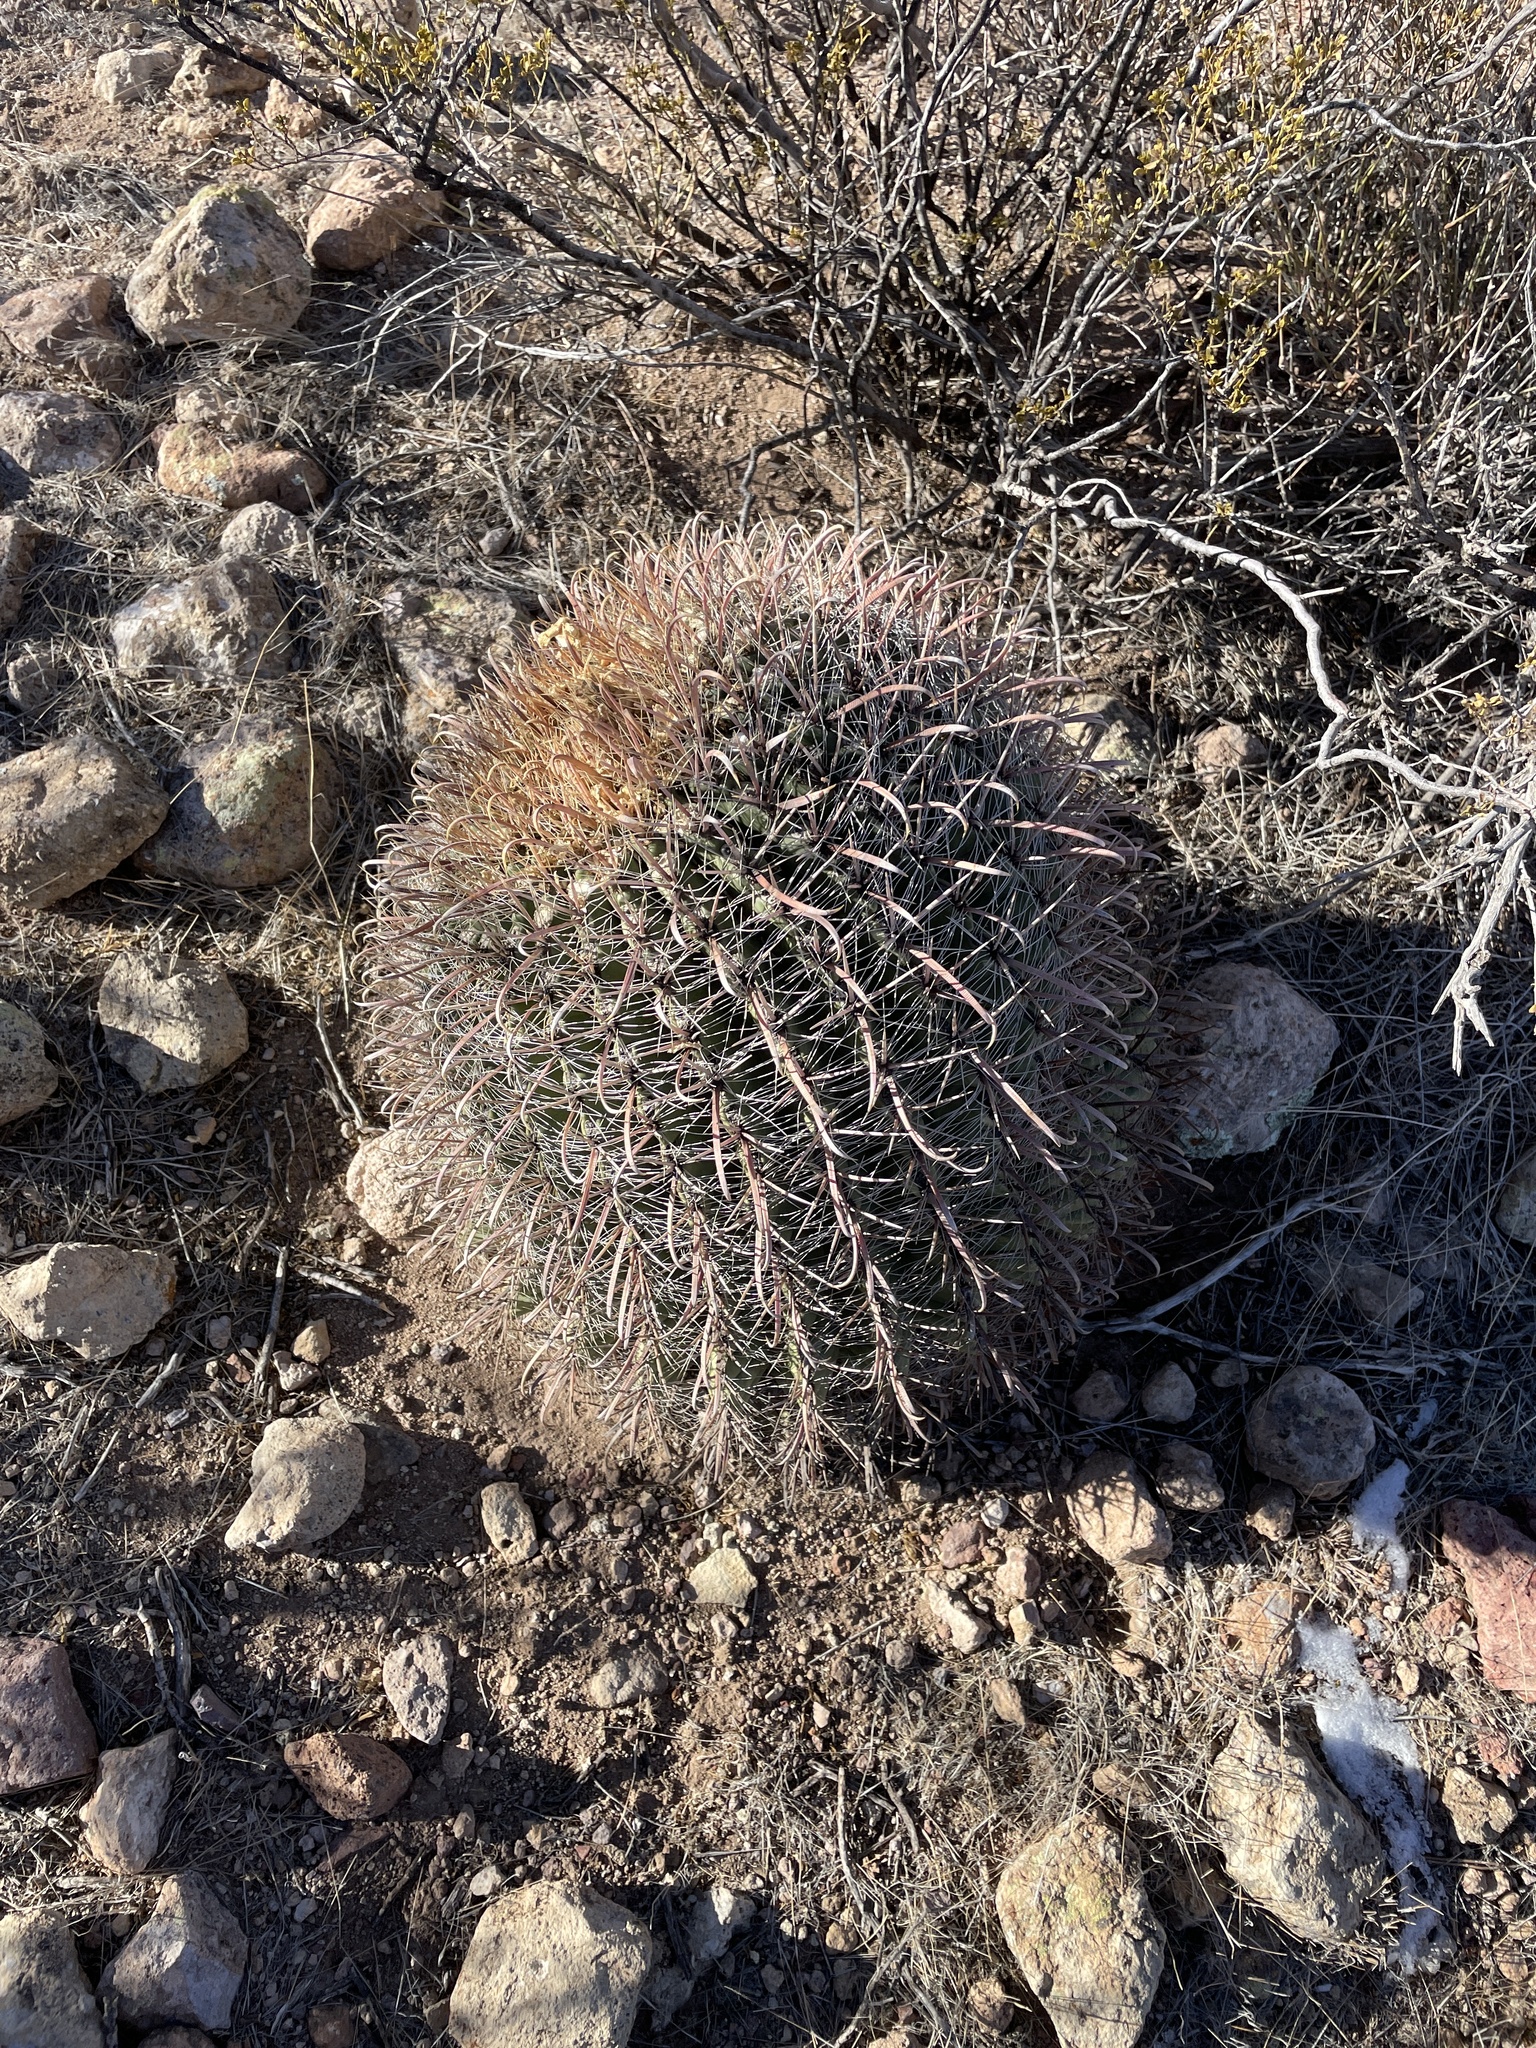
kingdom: Plantae
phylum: Tracheophyta
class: Magnoliopsida
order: Caryophyllales
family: Cactaceae
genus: Ferocactus
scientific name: Ferocactus wislizeni
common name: Candy barrel cactus
